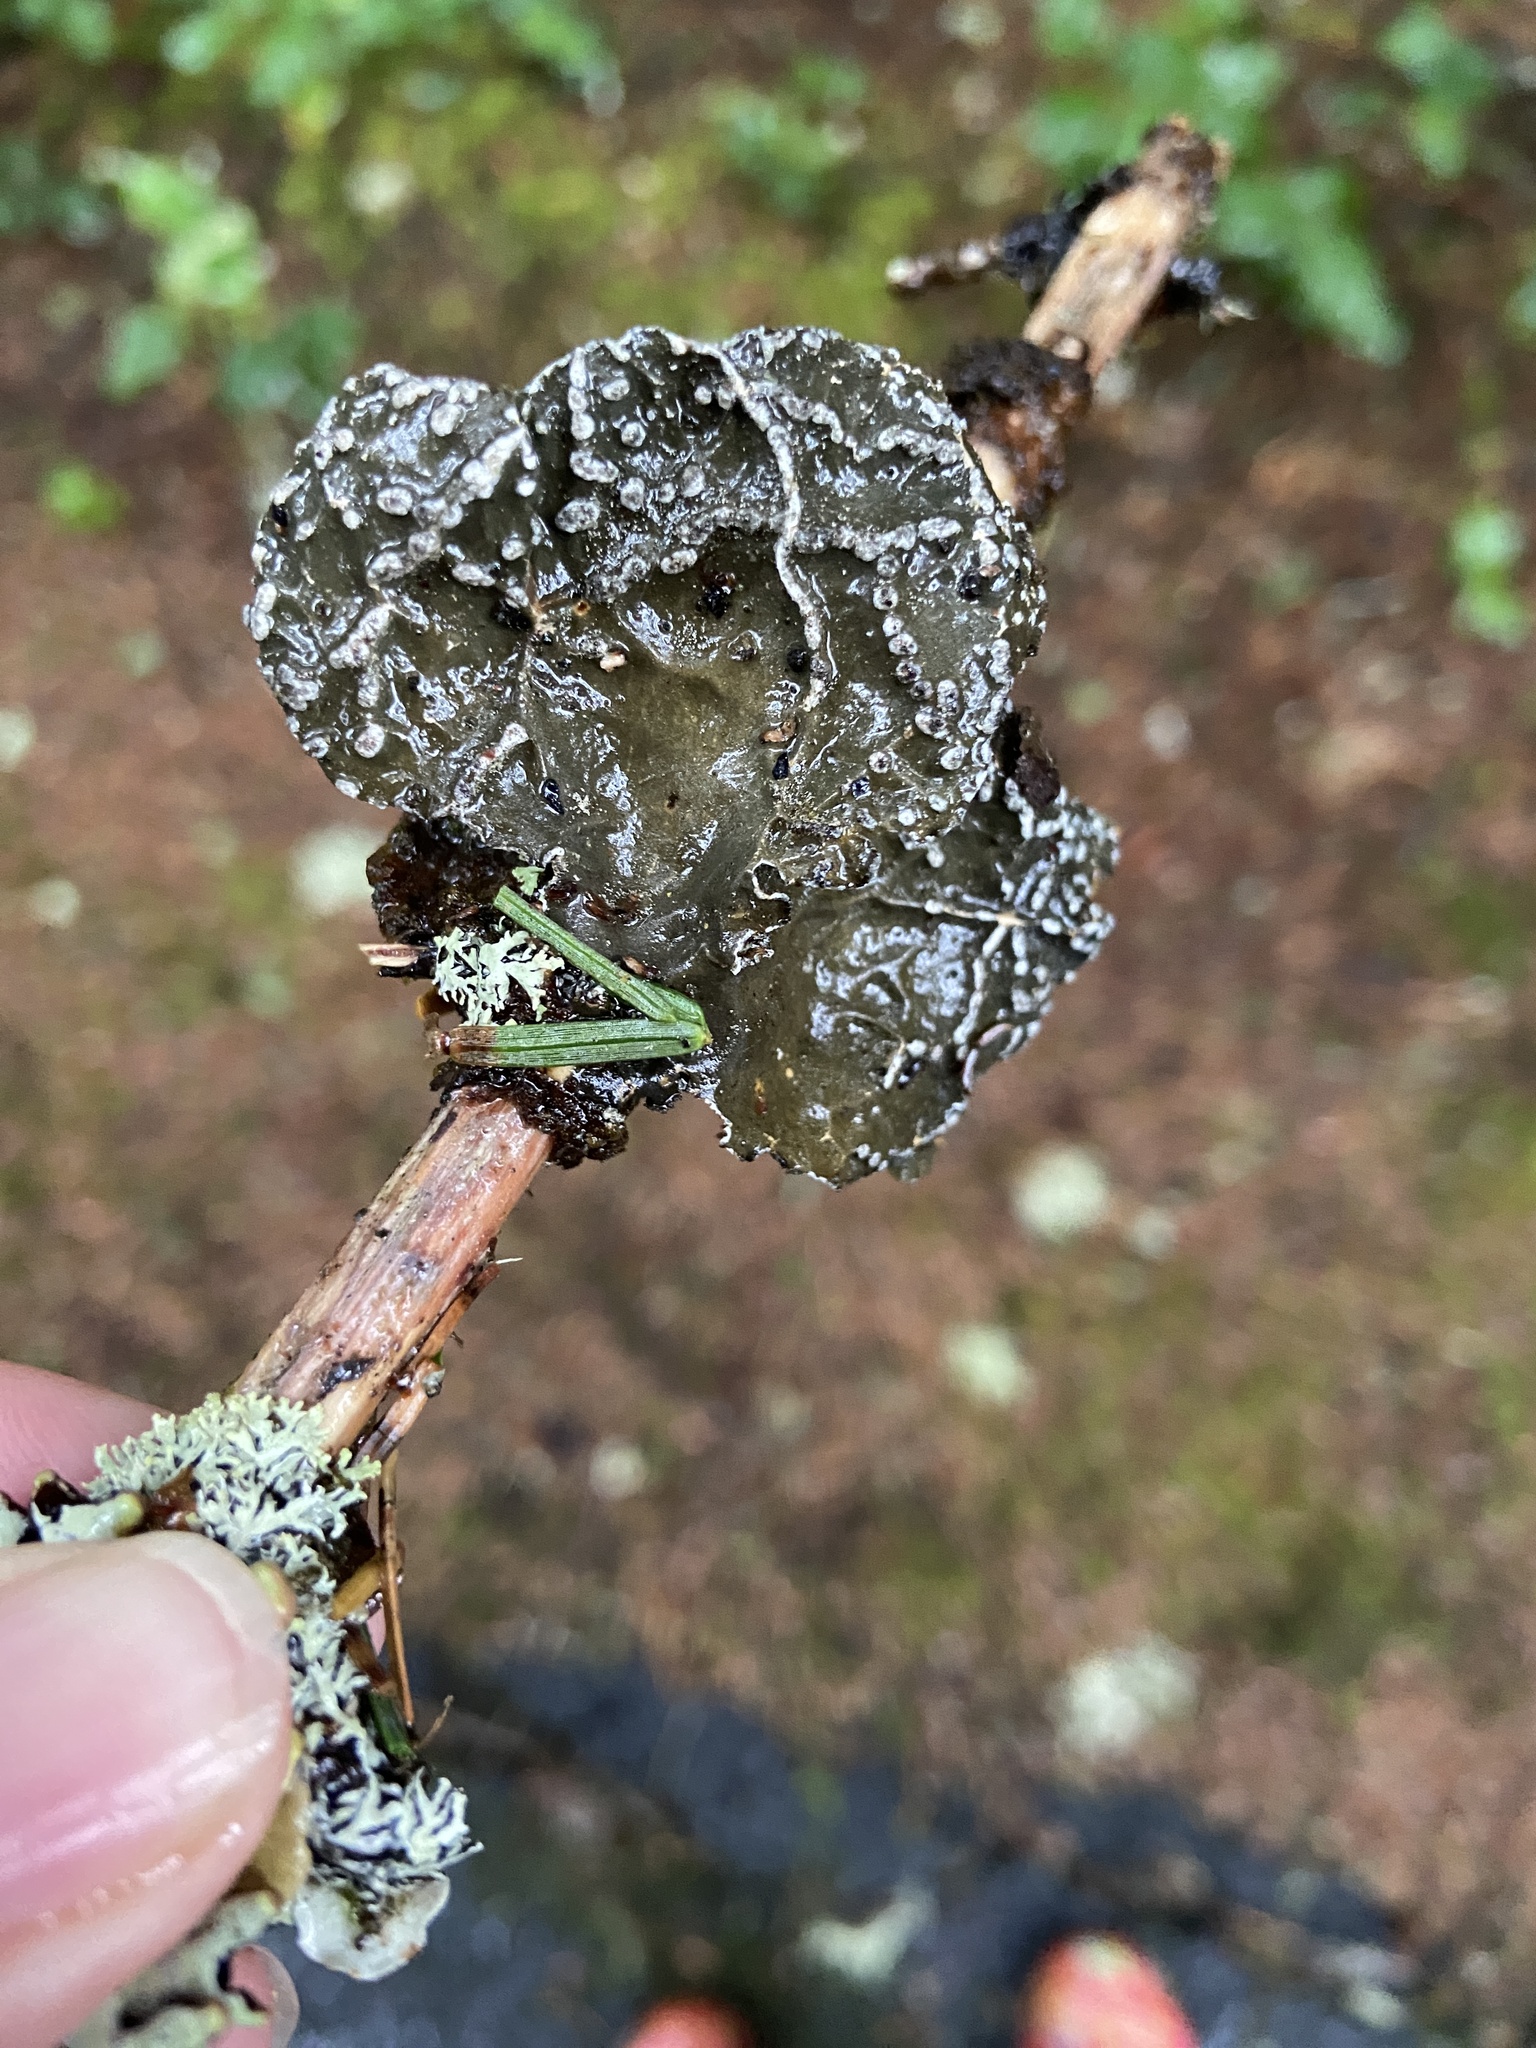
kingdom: Fungi
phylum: Ascomycota
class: Lecanoromycetes
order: Peltigerales
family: Lobariaceae
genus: Lobaria
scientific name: Lobaria anomala
